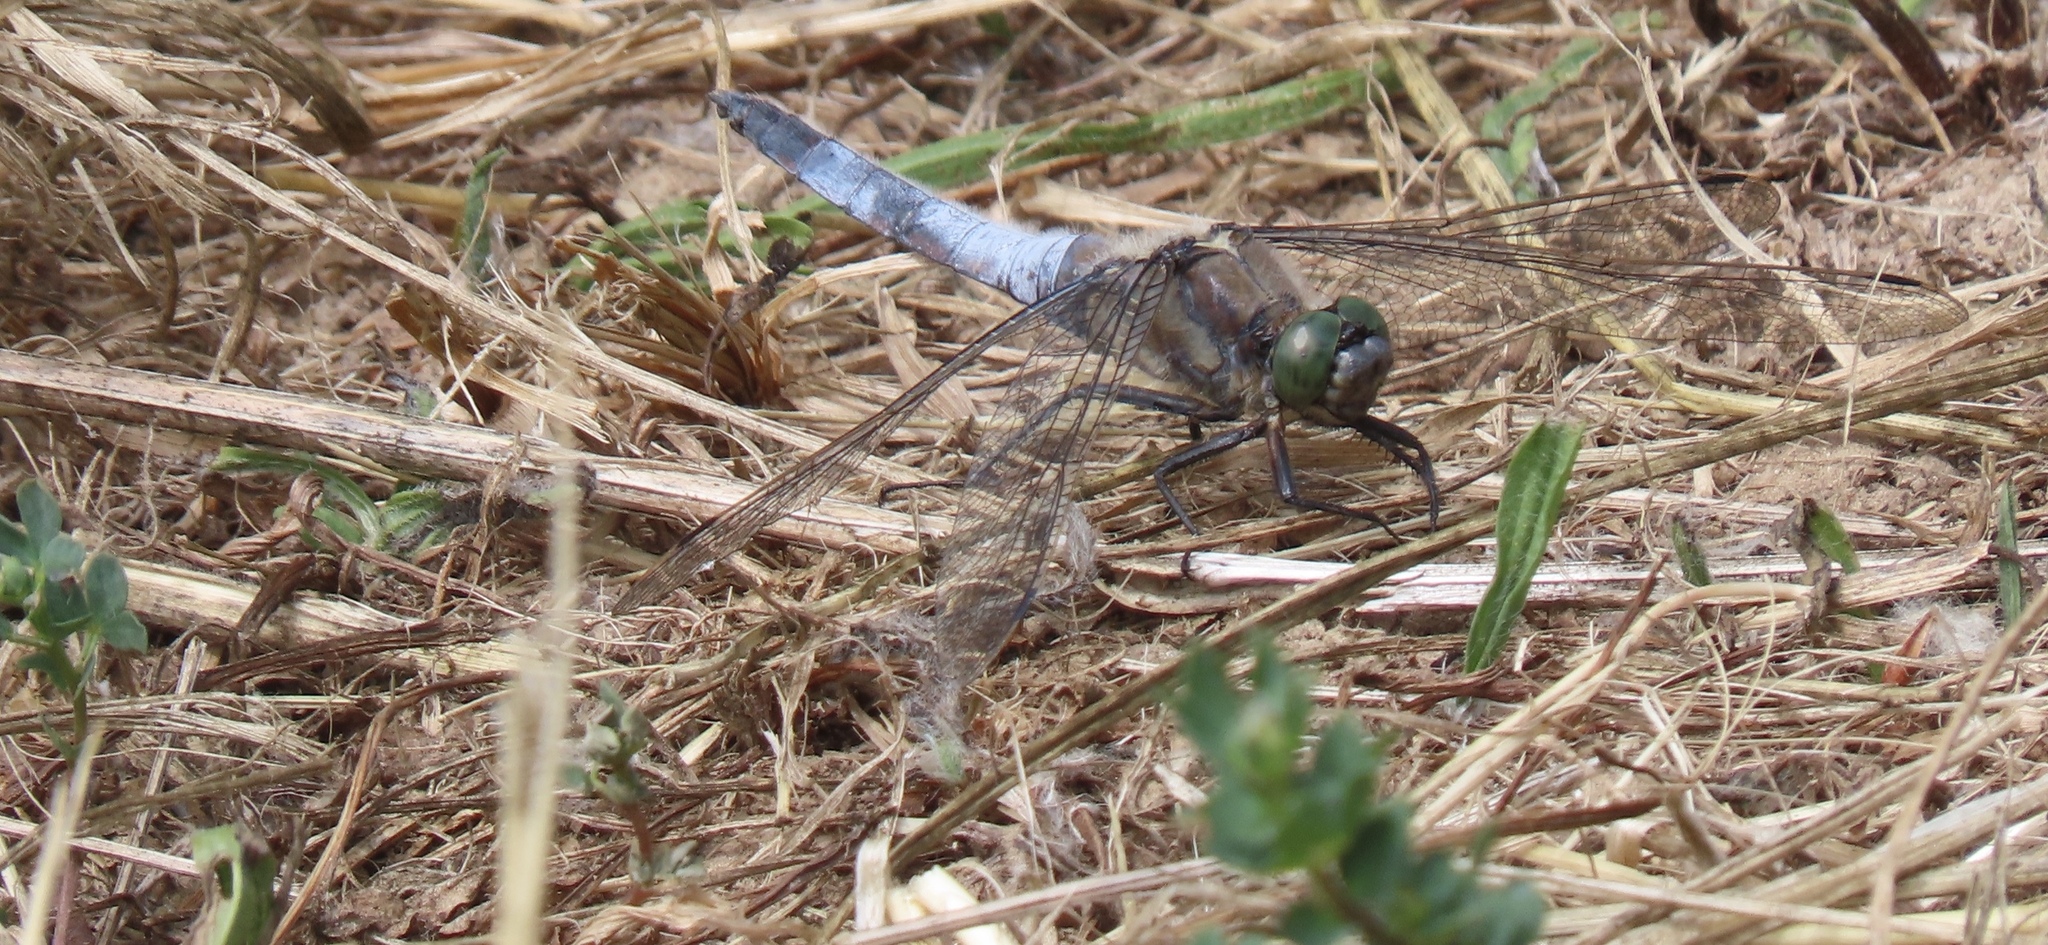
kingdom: Animalia
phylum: Arthropoda
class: Insecta
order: Odonata
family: Libellulidae
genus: Orthetrum
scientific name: Orthetrum cancellatum
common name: Black-tailed skimmer
